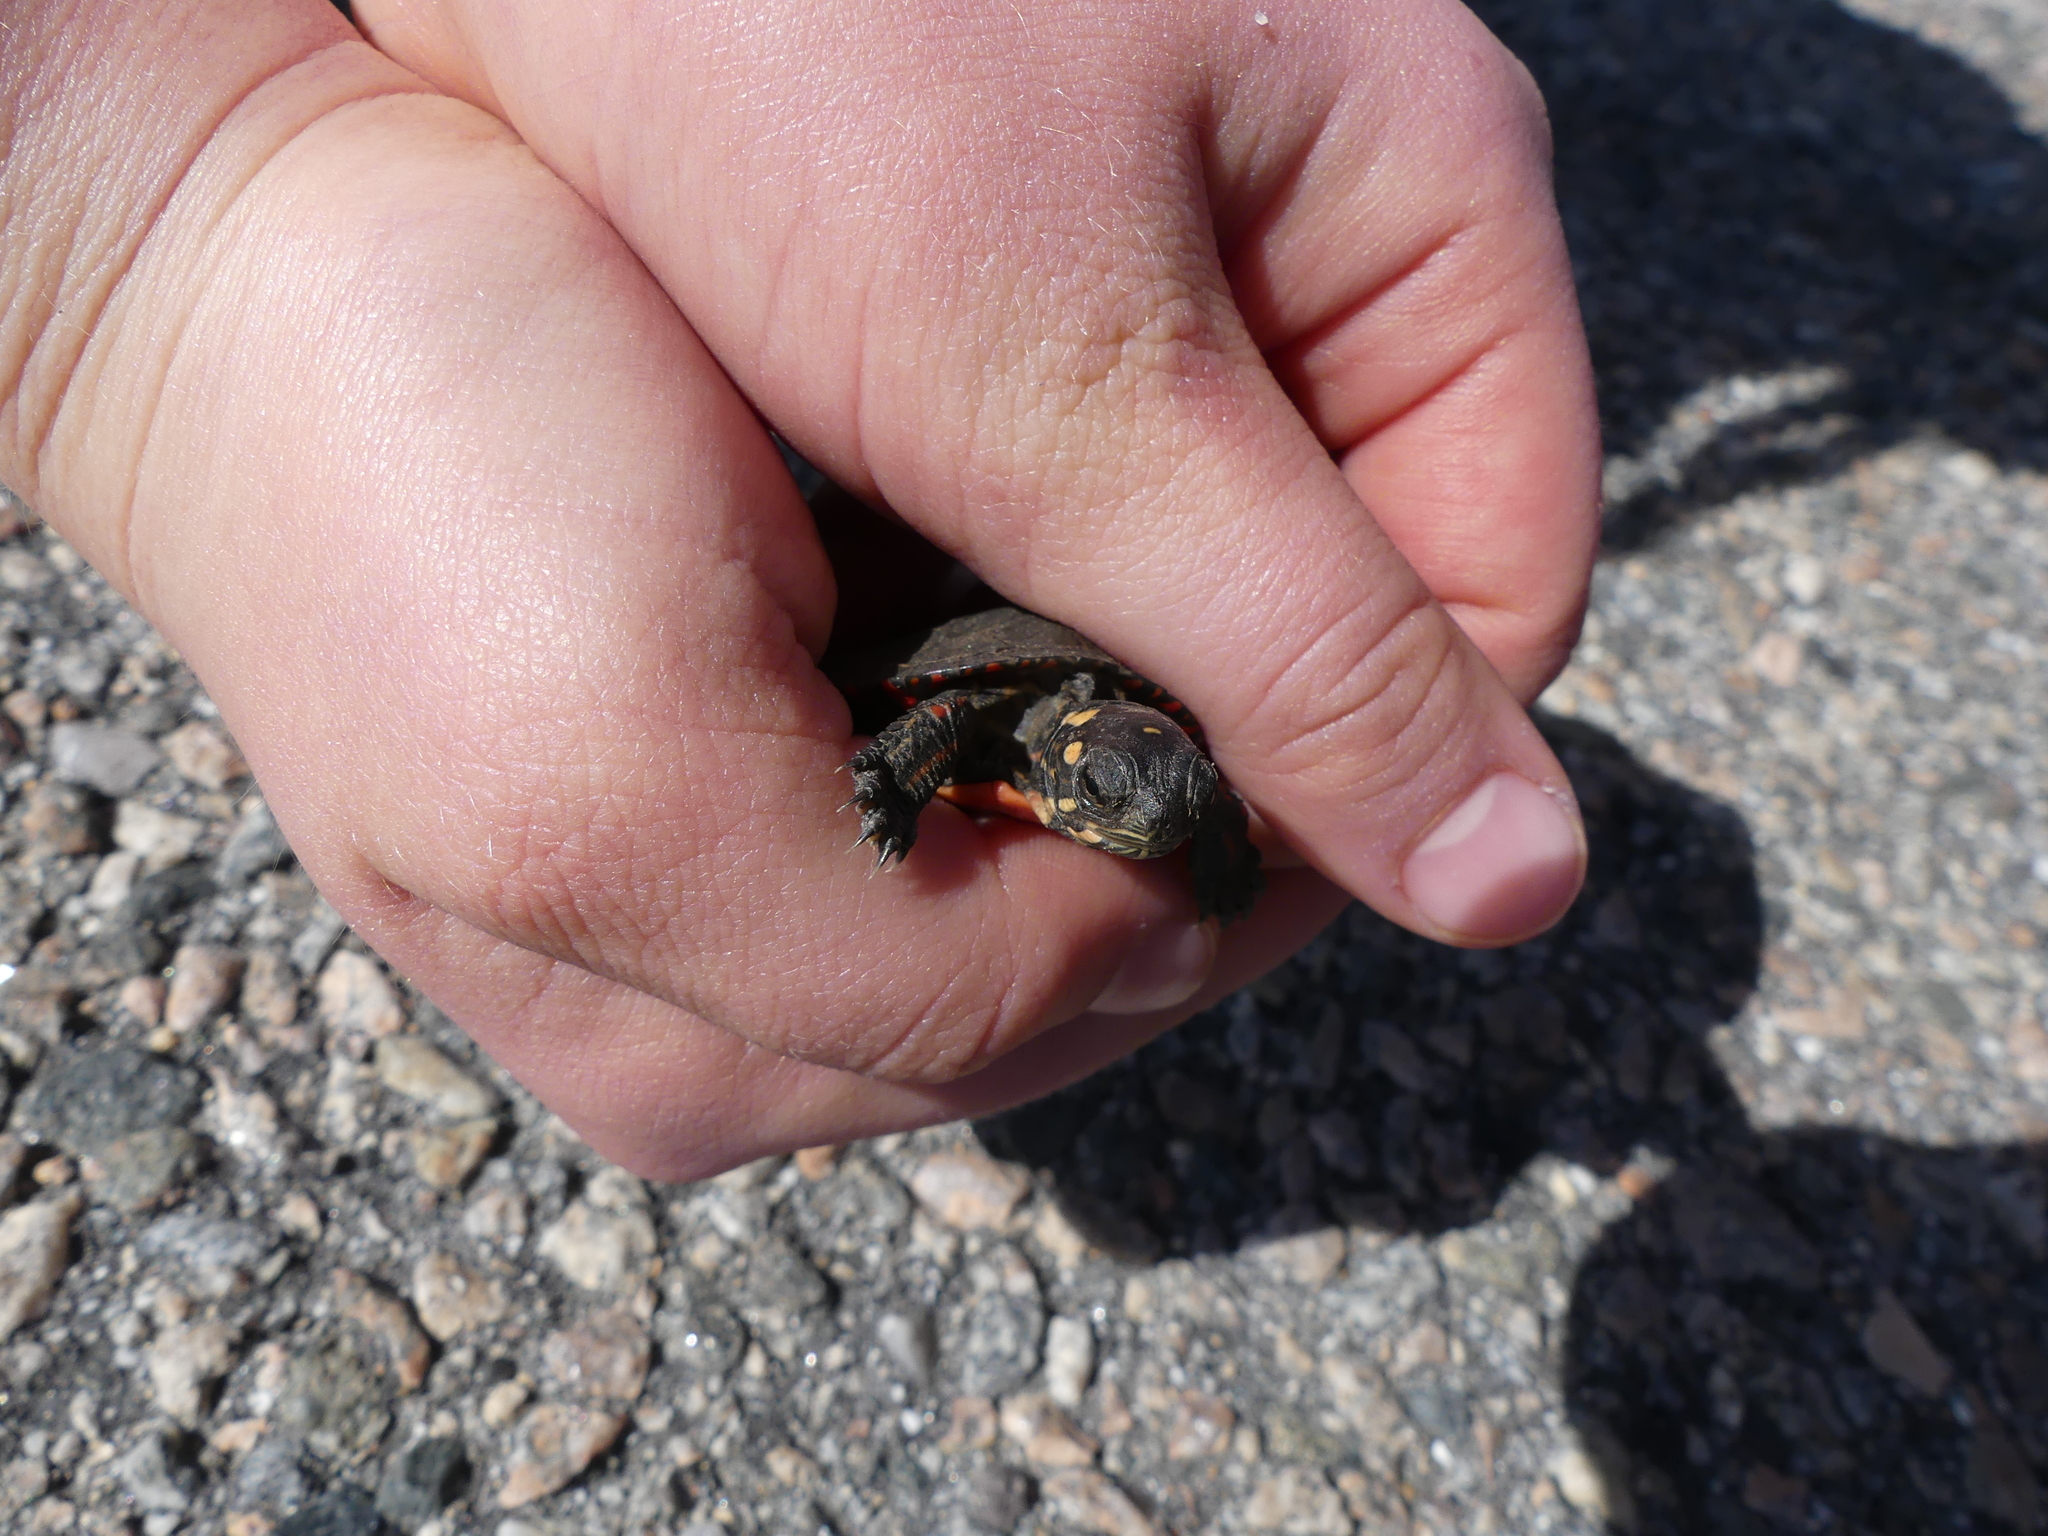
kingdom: Animalia
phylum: Chordata
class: Testudines
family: Emydidae
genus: Chrysemys
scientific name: Chrysemys picta
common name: Painted turtle
